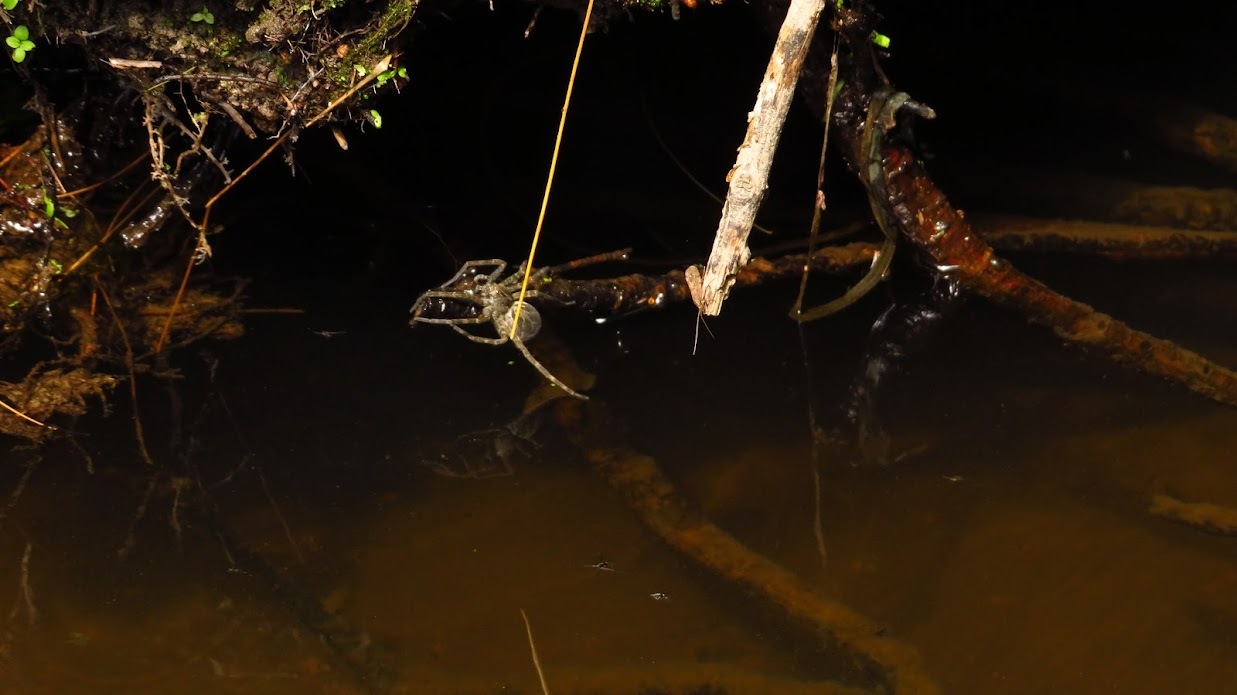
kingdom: Animalia
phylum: Arthropoda
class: Arachnida
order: Araneae
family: Pisauridae
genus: Dolomedes
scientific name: Dolomedes scriptus
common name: Striped fishing spider
